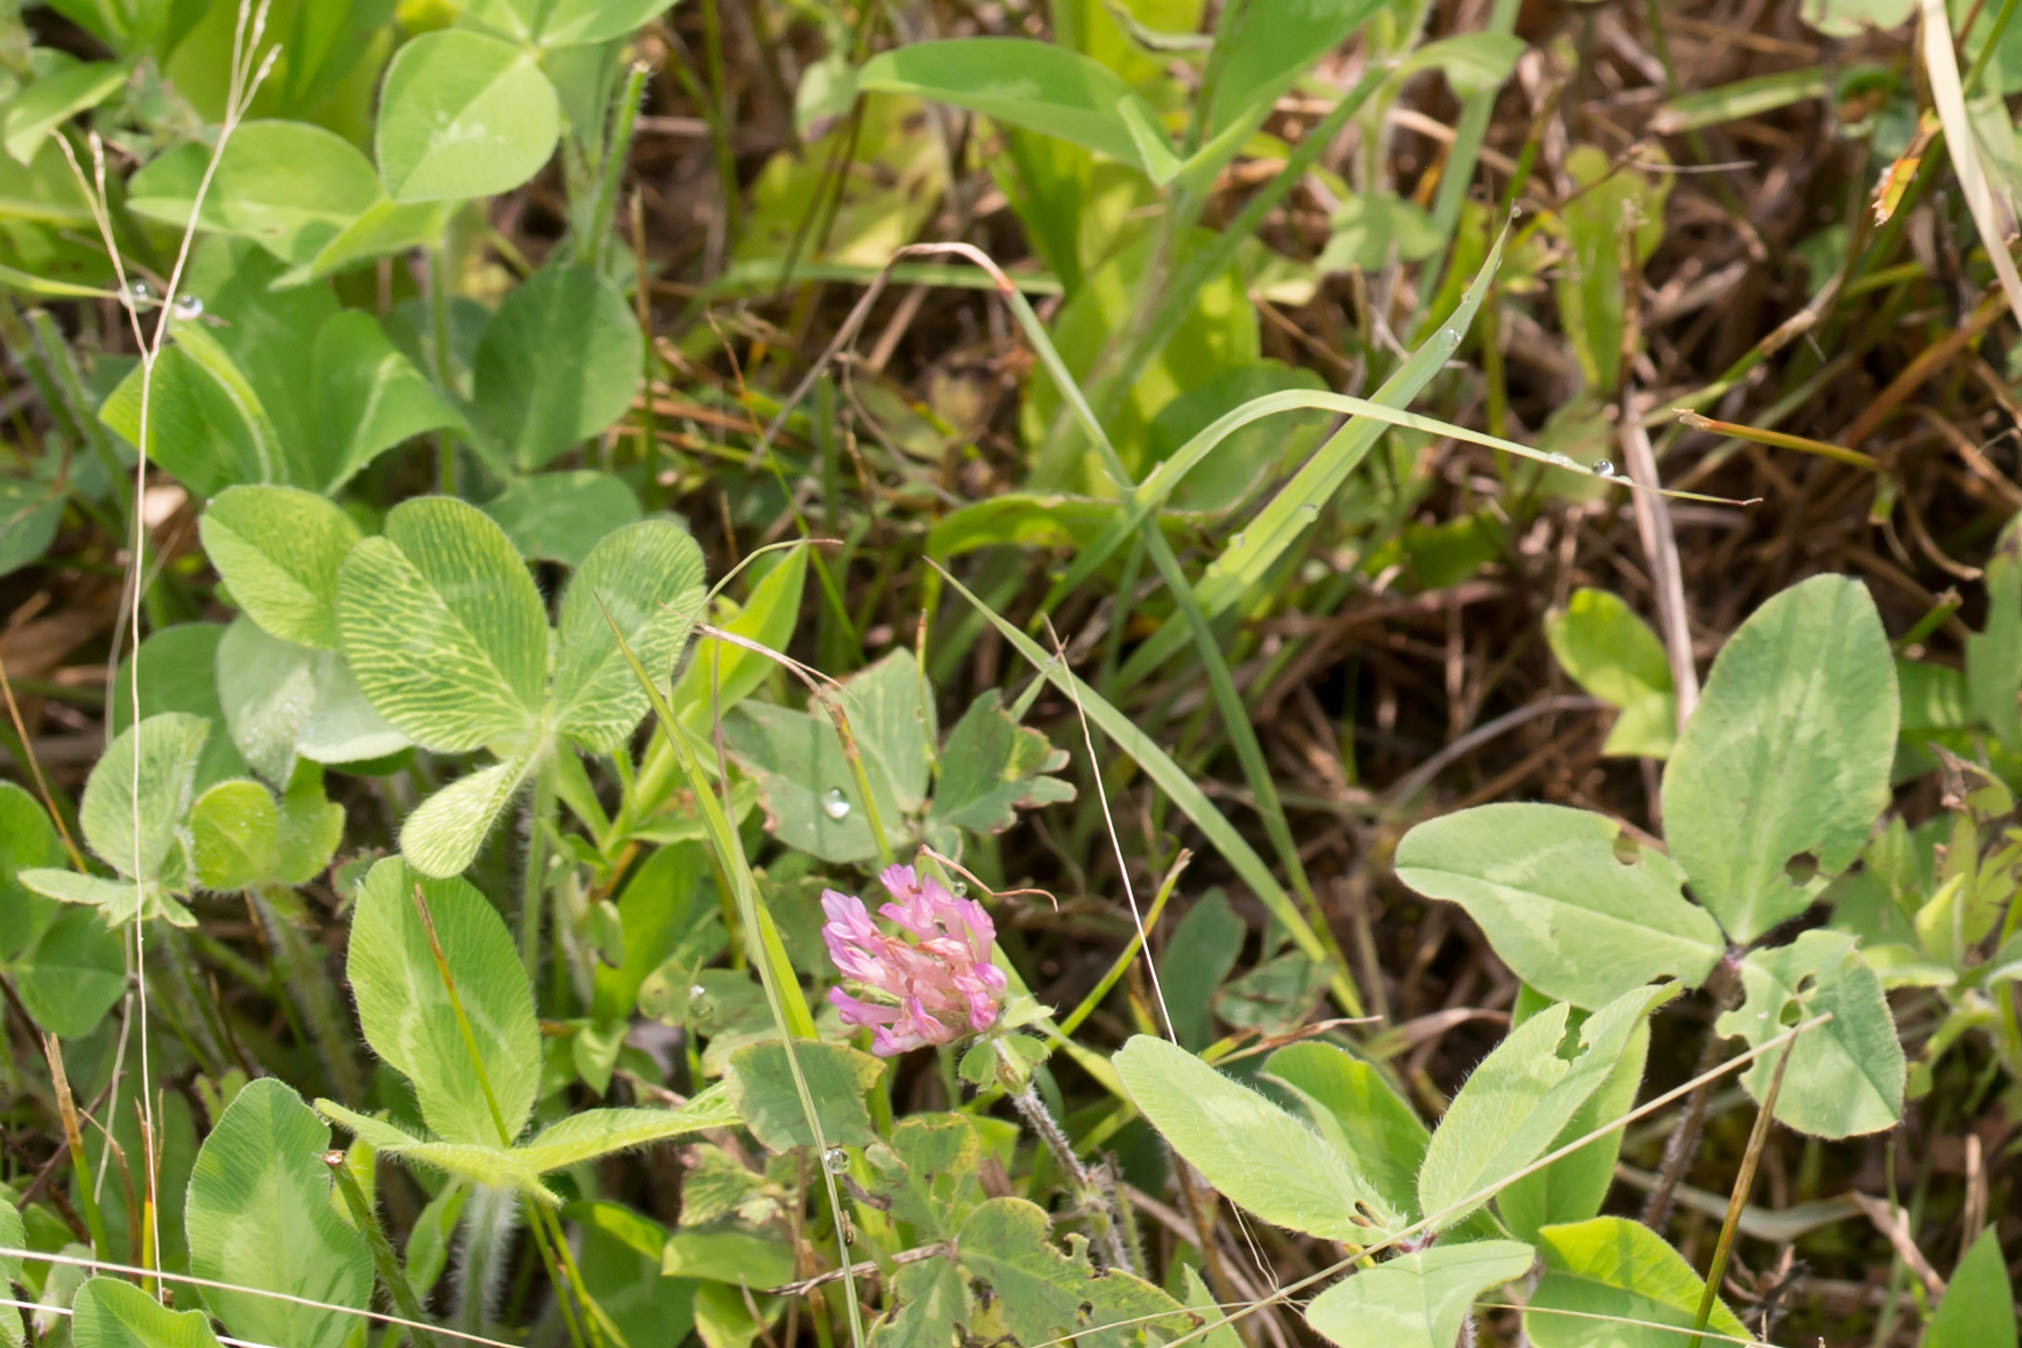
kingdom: Plantae
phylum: Tracheophyta
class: Magnoliopsida
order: Fabales
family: Fabaceae
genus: Trifolium
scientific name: Trifolium pratense
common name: Red clover
